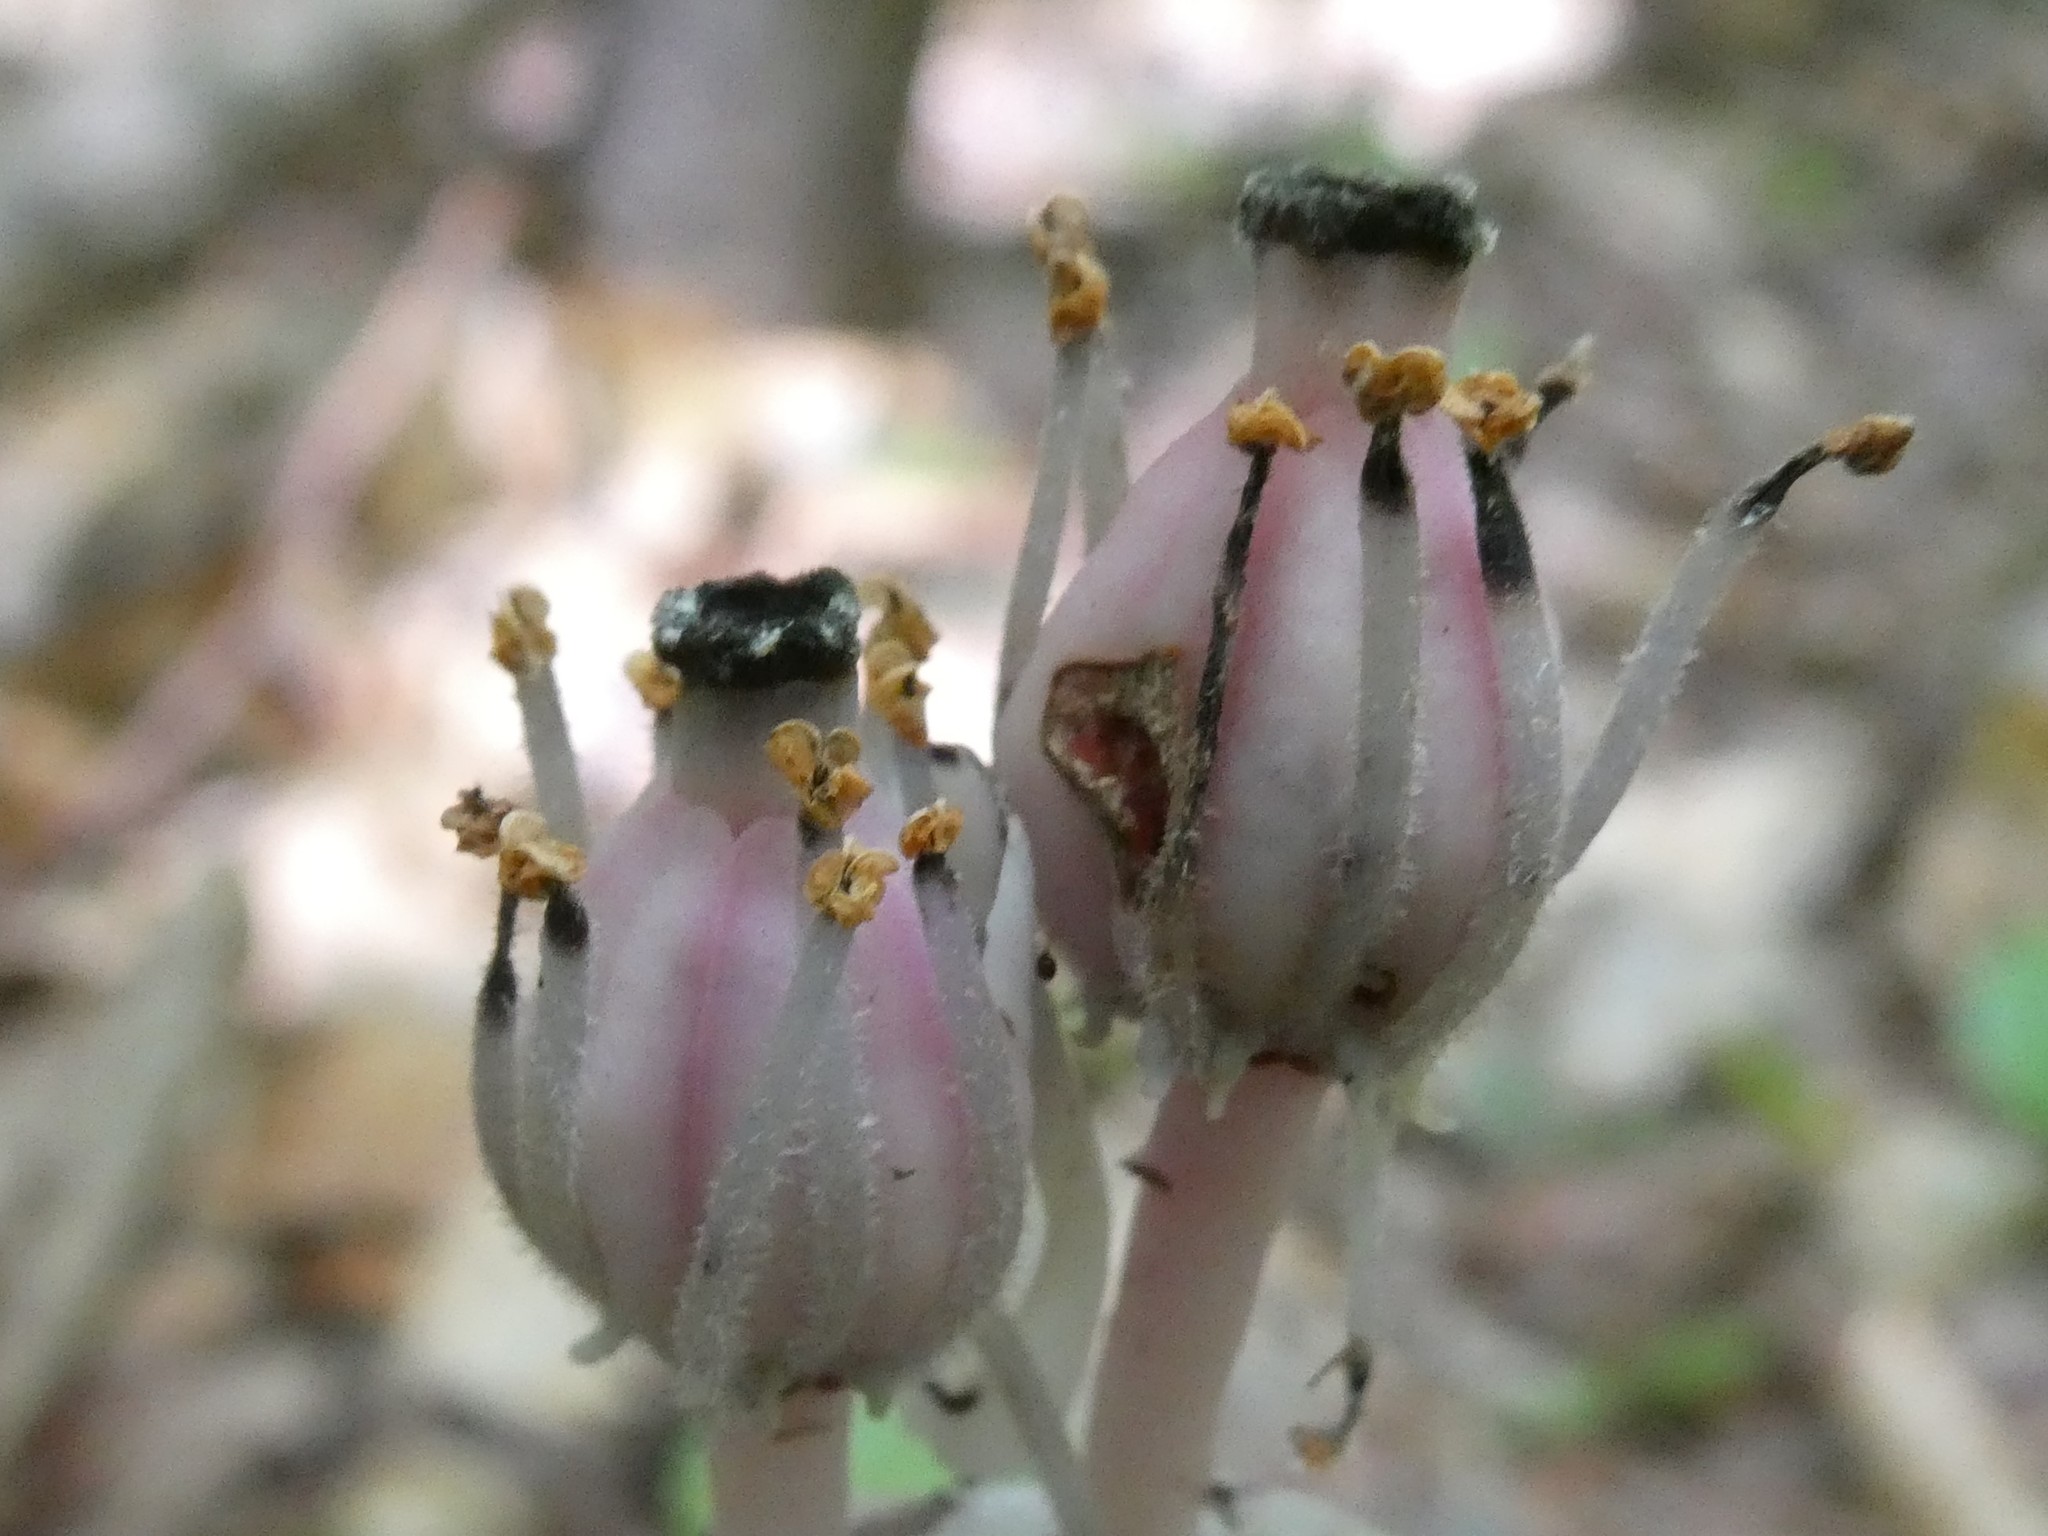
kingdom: Plantae
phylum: Tracheophyta
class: Magnoliopsida
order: Ericales
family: Ericaceae
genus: Monotropa
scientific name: Monotropa uniflora
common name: Convulsion root
